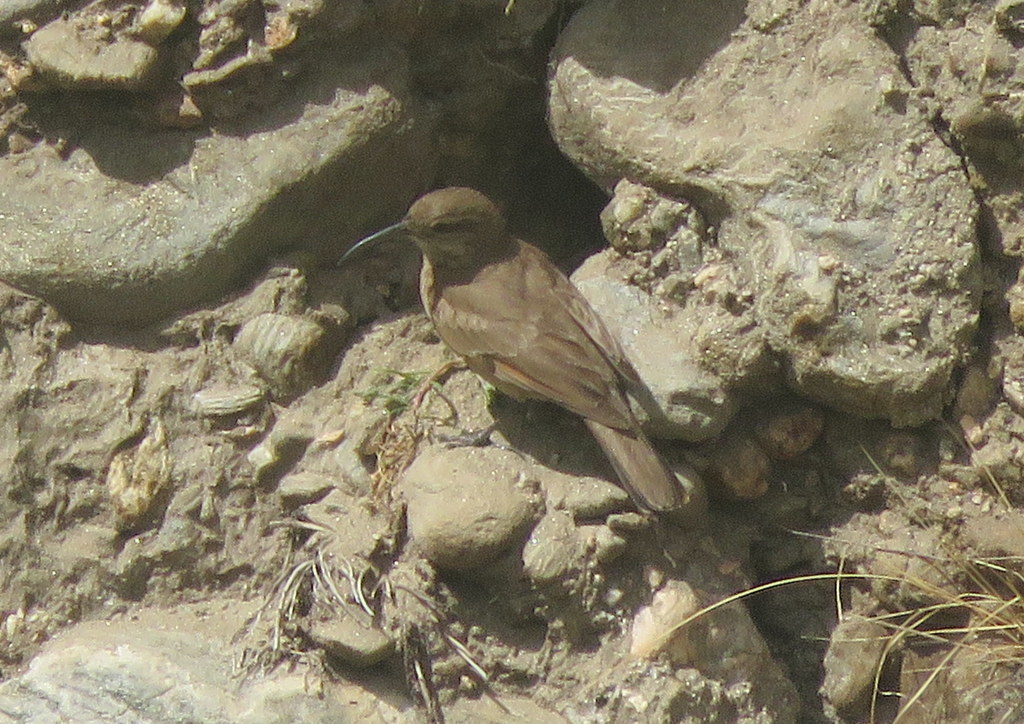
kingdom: Animalia
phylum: Chordata
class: Aves
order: Passeriformes
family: Furnariidae
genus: Upucerthia
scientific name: Upucerthia validirostris
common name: Buff-breasted earthcreeper
